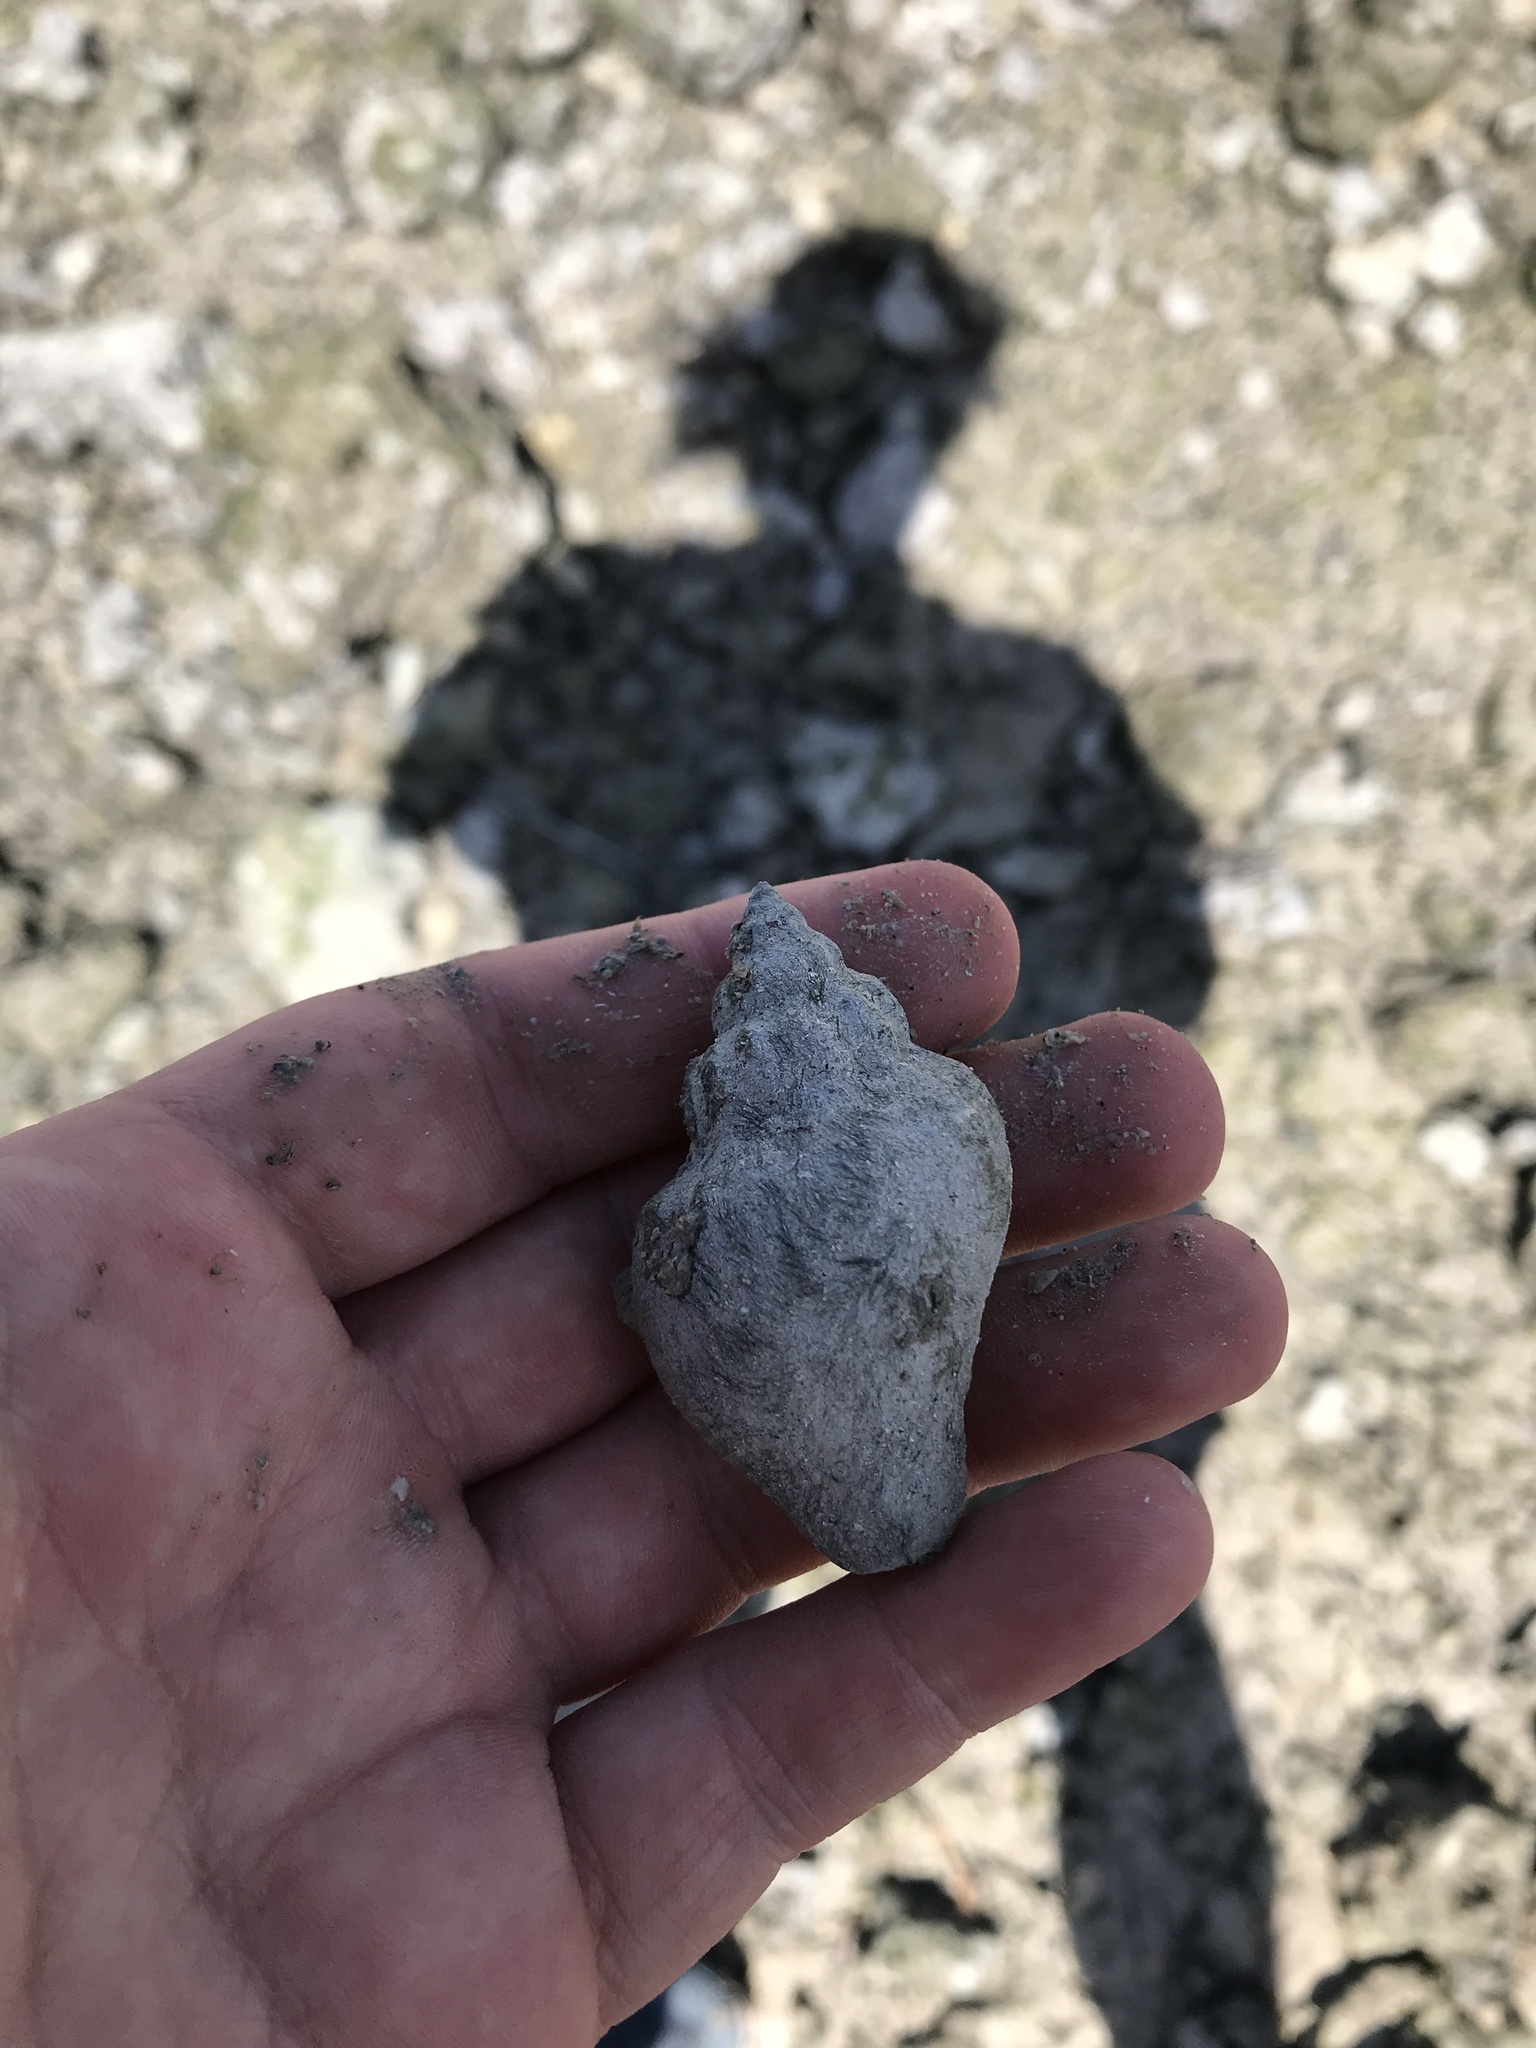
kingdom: Animalia
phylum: Mollusca
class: Gastropoda
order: Neogastropoda
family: Melongenidae
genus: Melongena
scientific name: Melongena corona
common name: American crown conch
